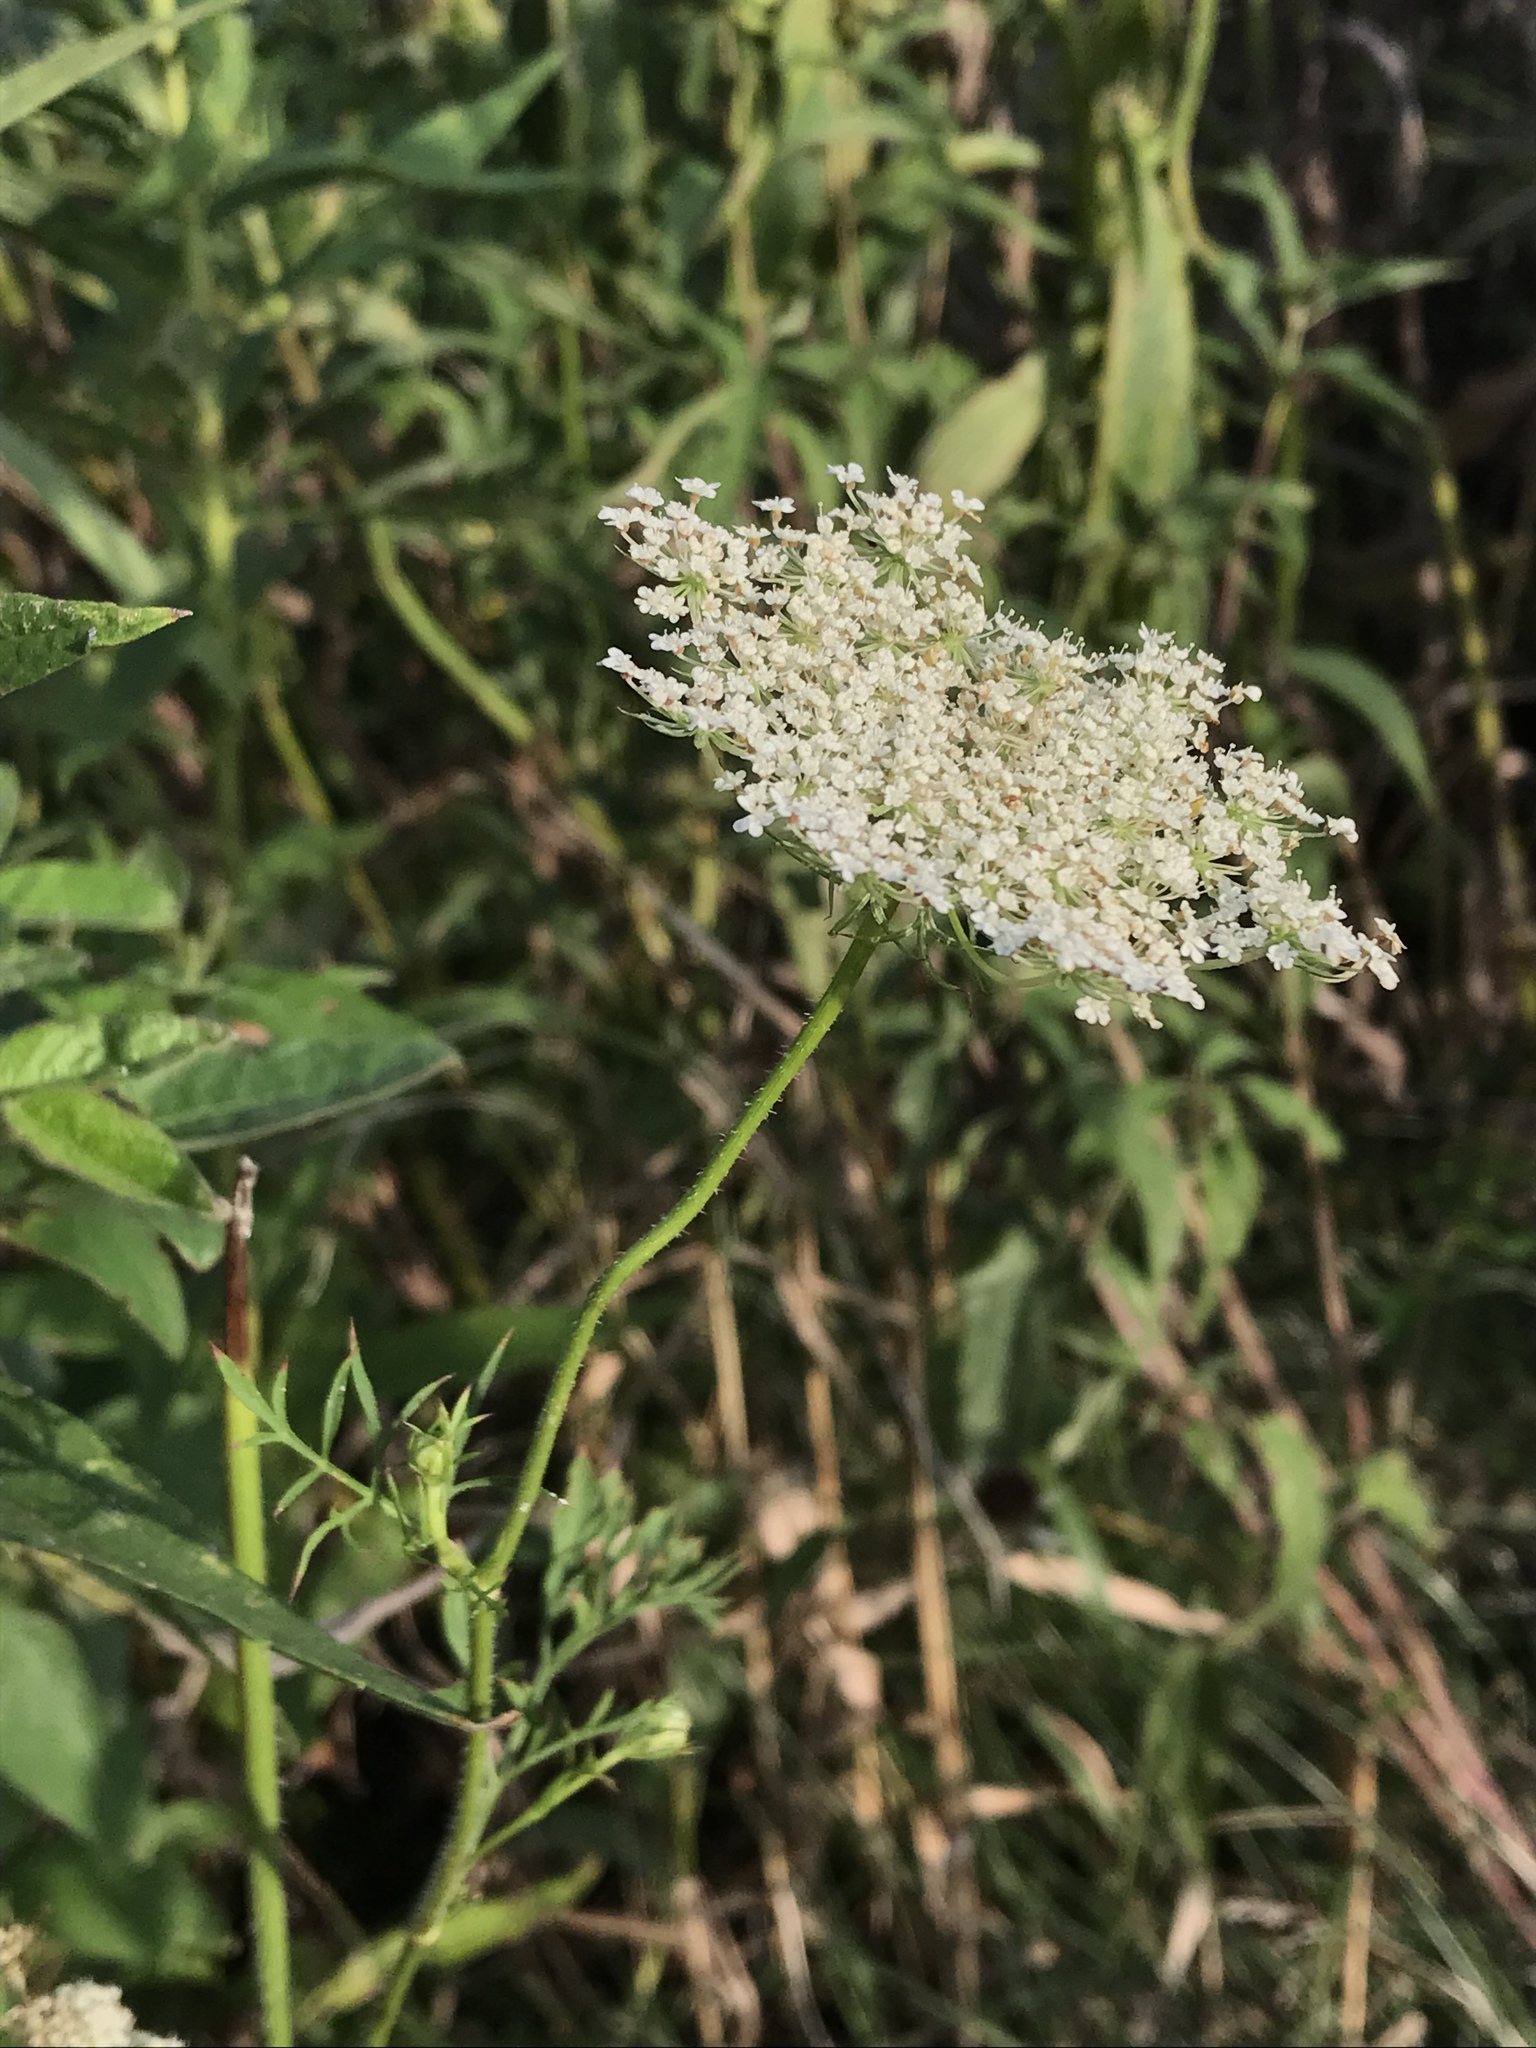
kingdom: Plantae
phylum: Tracheophyta
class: Magnoliopsida
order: Apiales
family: Apiaceae
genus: Daucus
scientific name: Daucus carota
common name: Wild carrot
